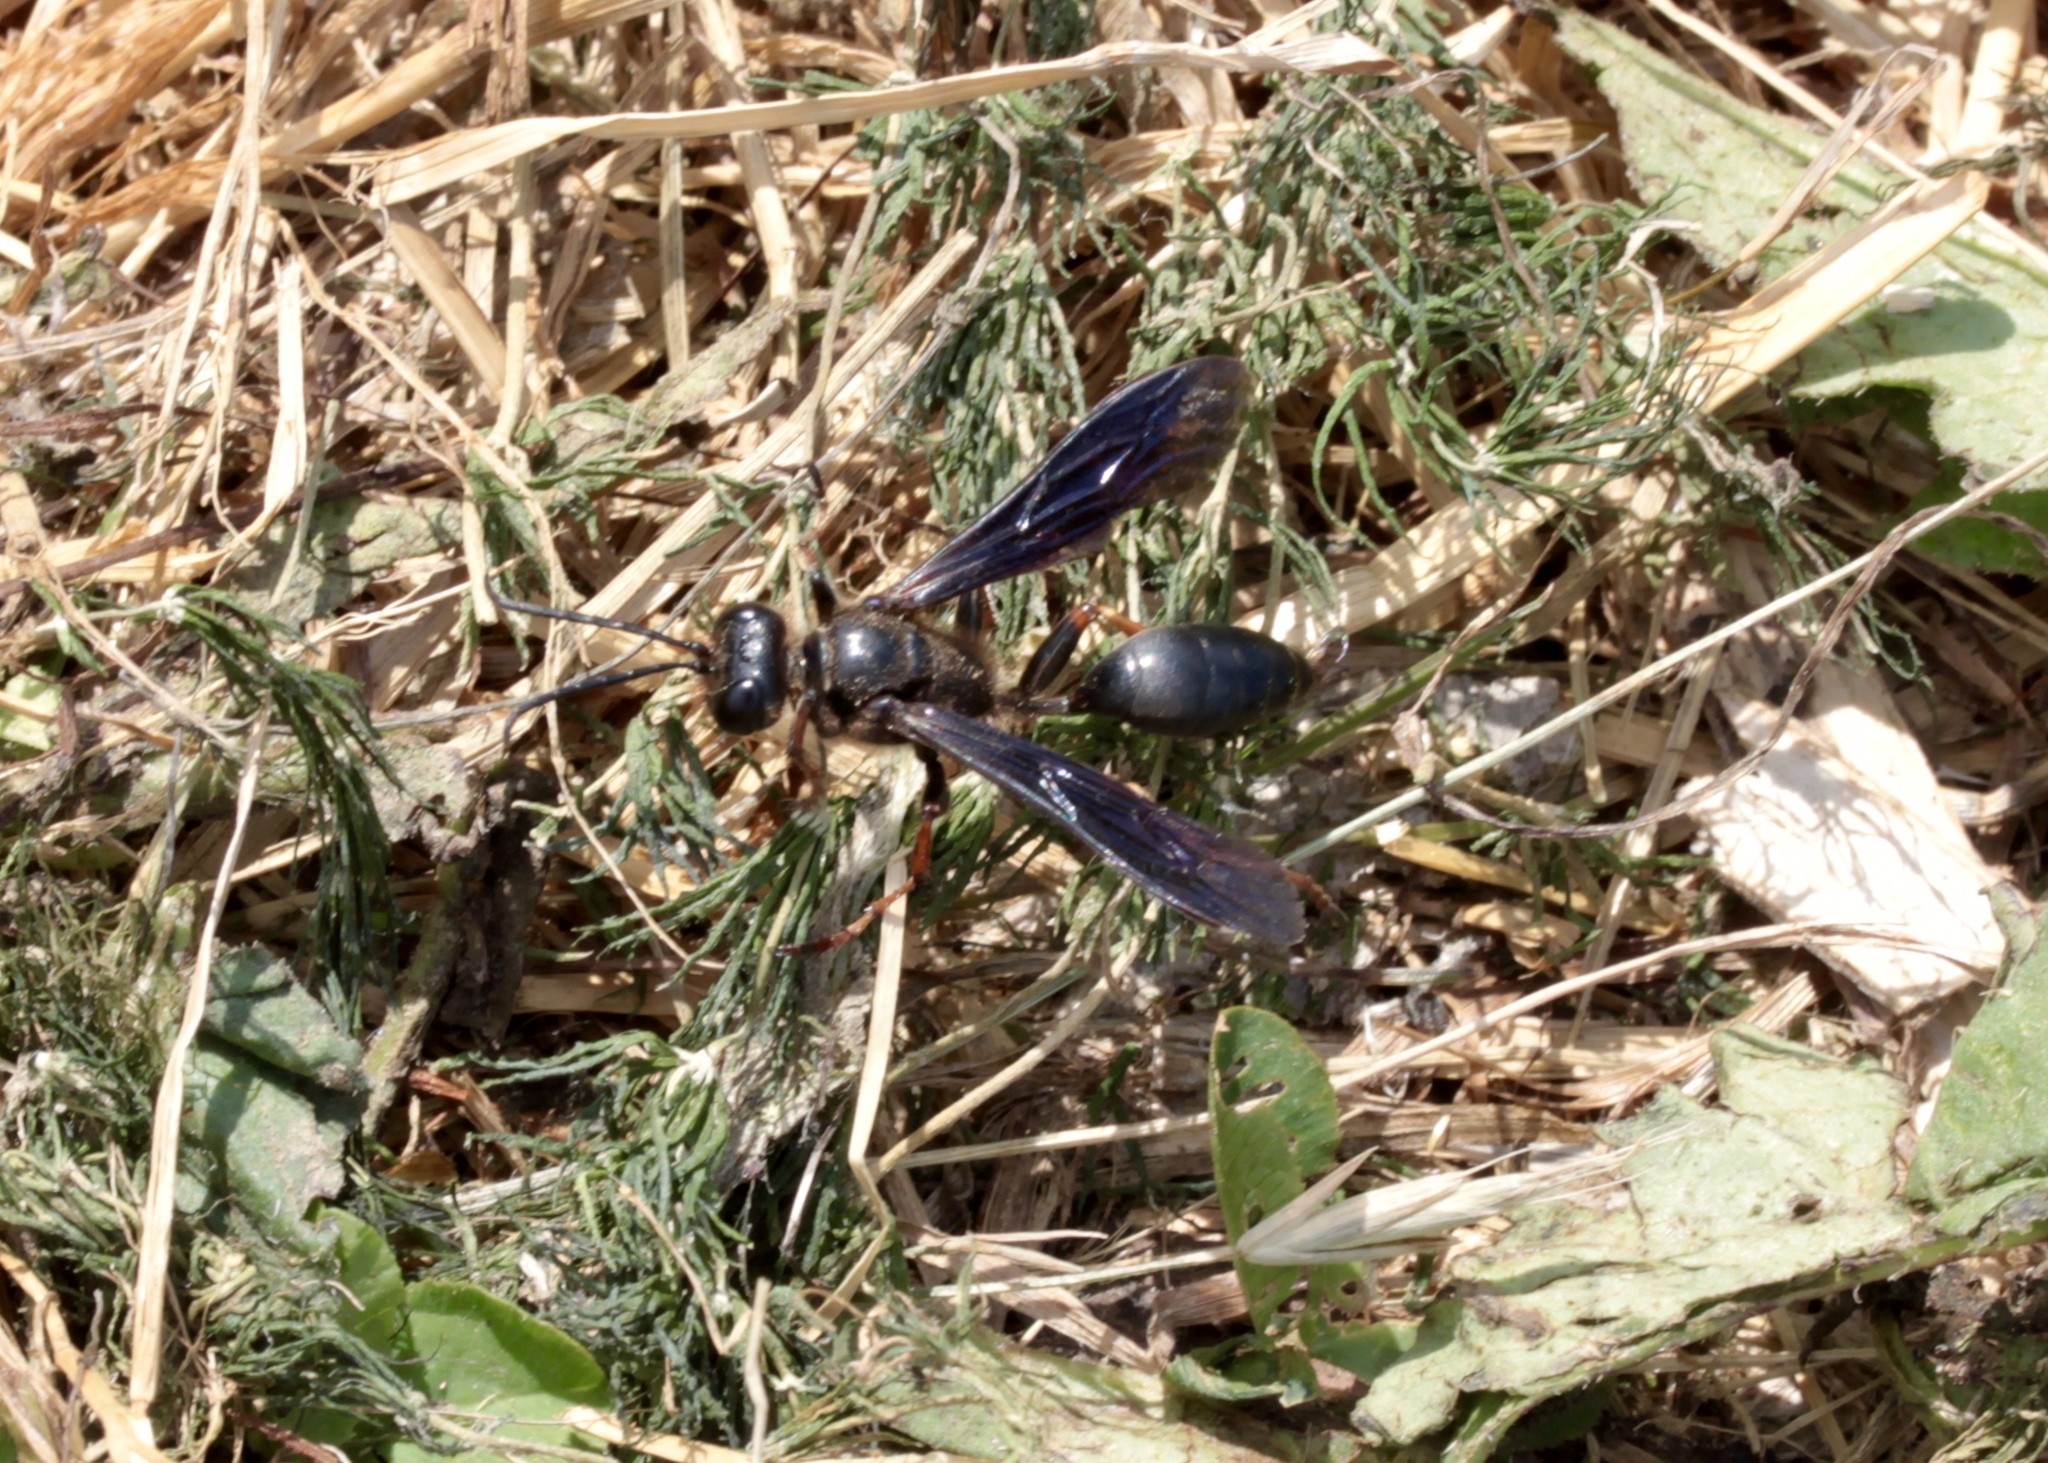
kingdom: Animalia
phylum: Arthropoda
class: Insecta
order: Hymenoptera
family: Sphecidae
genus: Isodontia
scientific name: Isodontia auripes
